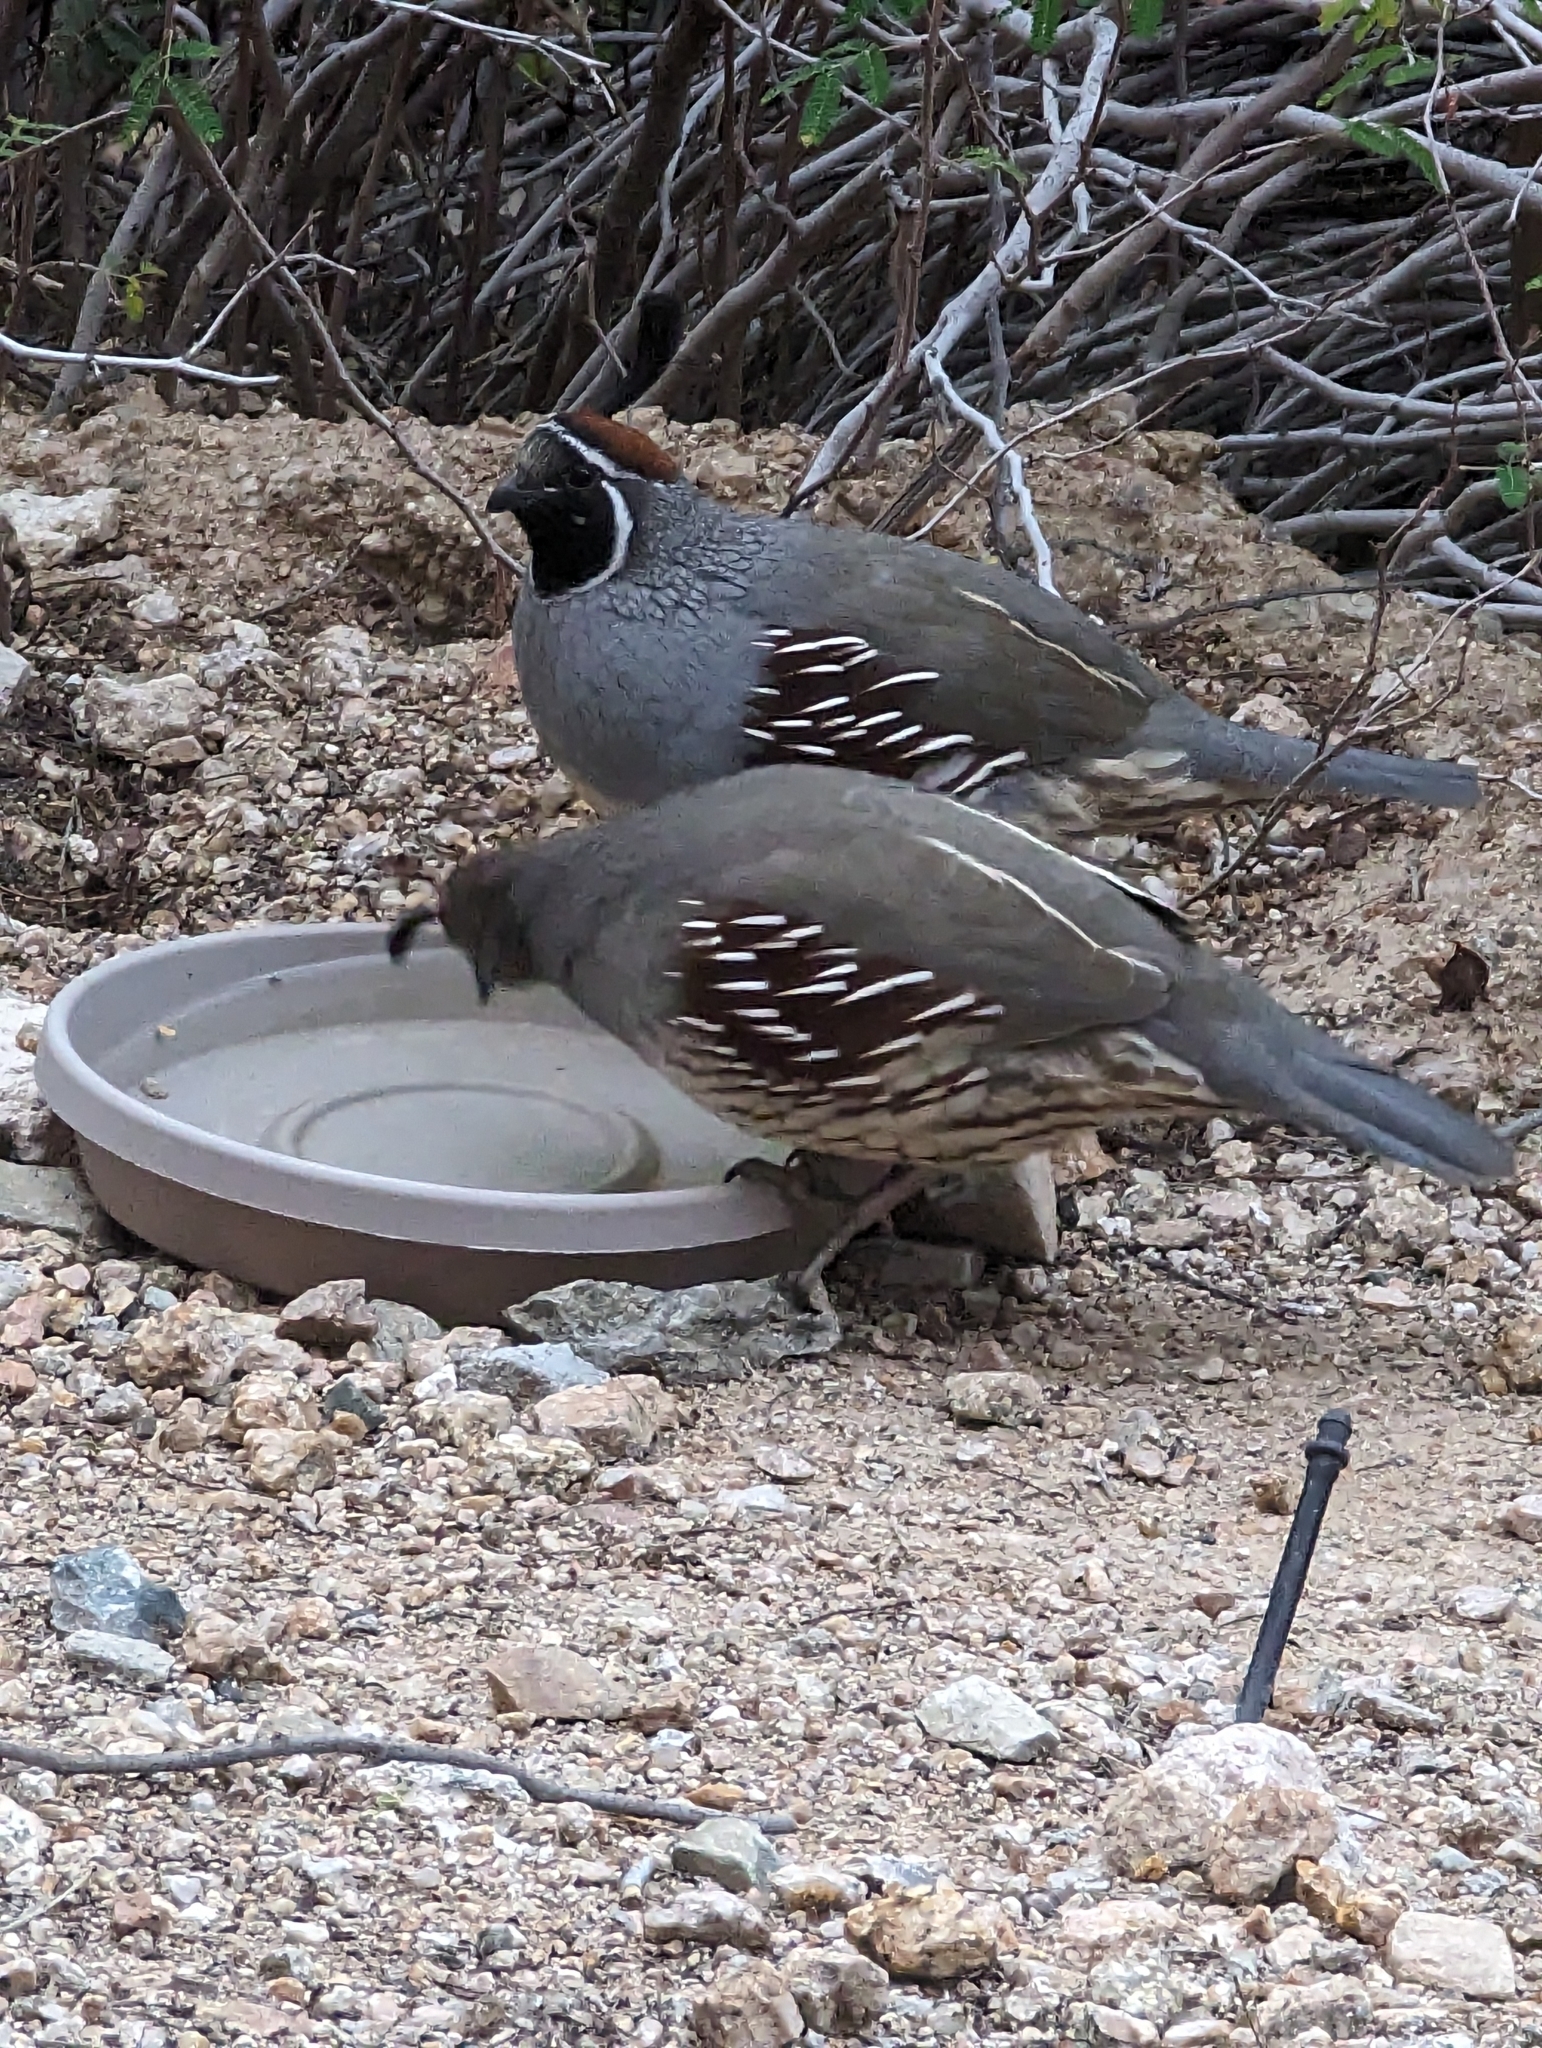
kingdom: Animalia
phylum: Chordata
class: Aves
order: Galliformes
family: Odontophoridae
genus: Callipepla
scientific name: Callipepla gambelii
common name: Gambel's quail
